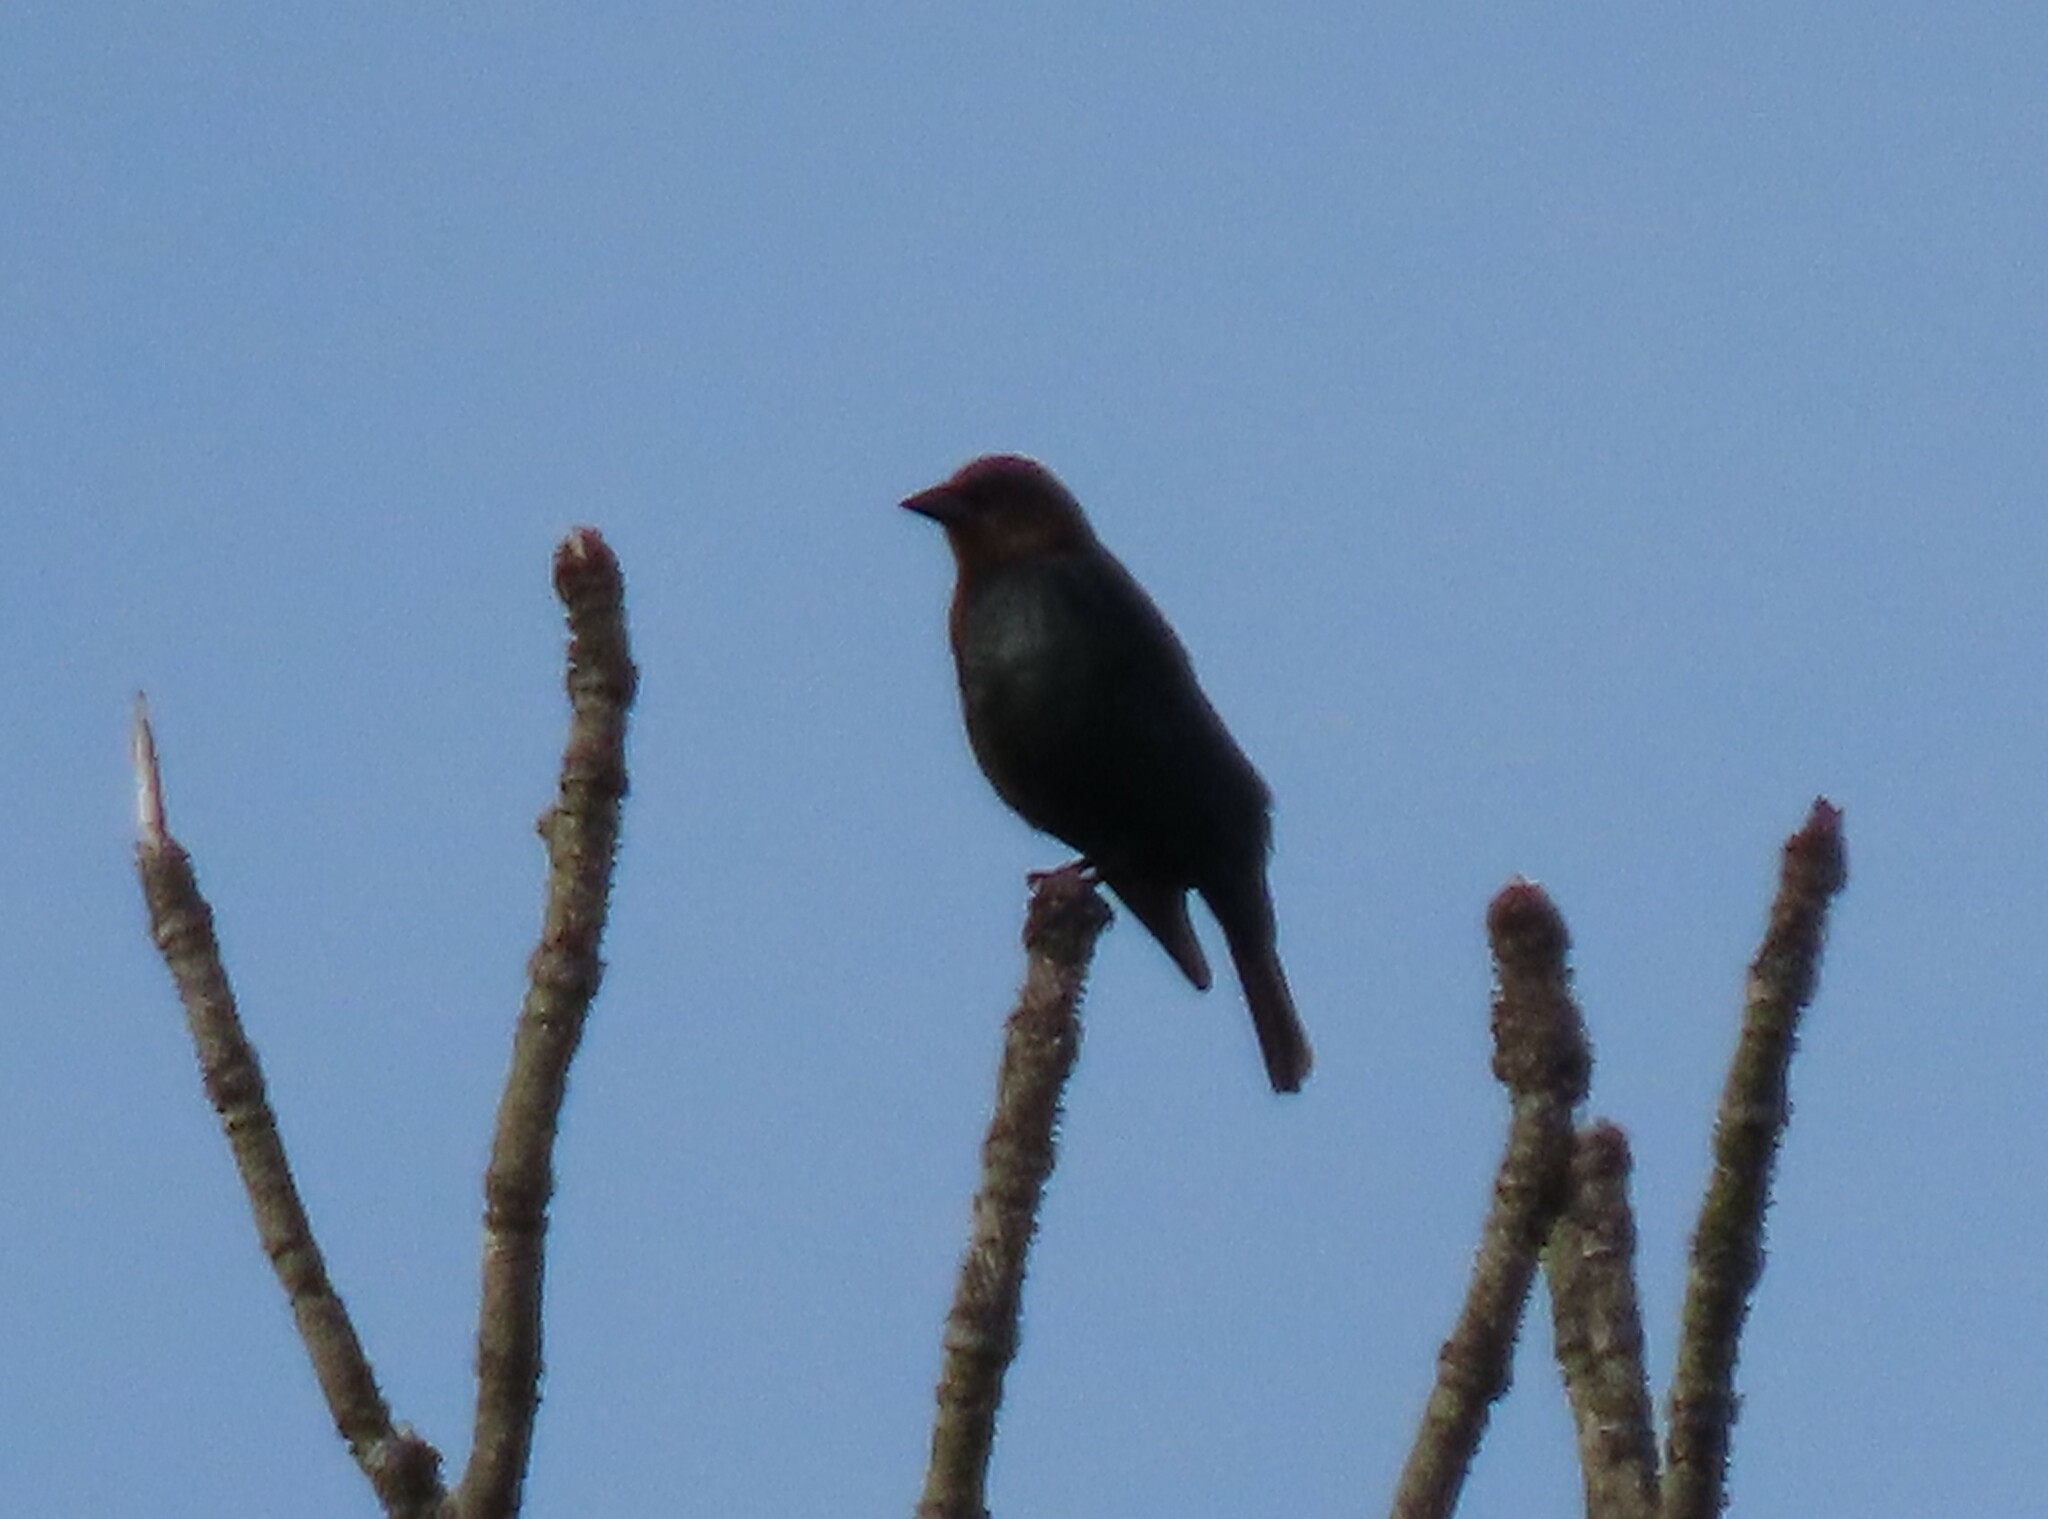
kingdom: Animalia
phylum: Chordata
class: Aves
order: Passeriformes
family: Icteridae
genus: Molothrus
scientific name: Molothrus ater
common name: Brown-headed cowbird
